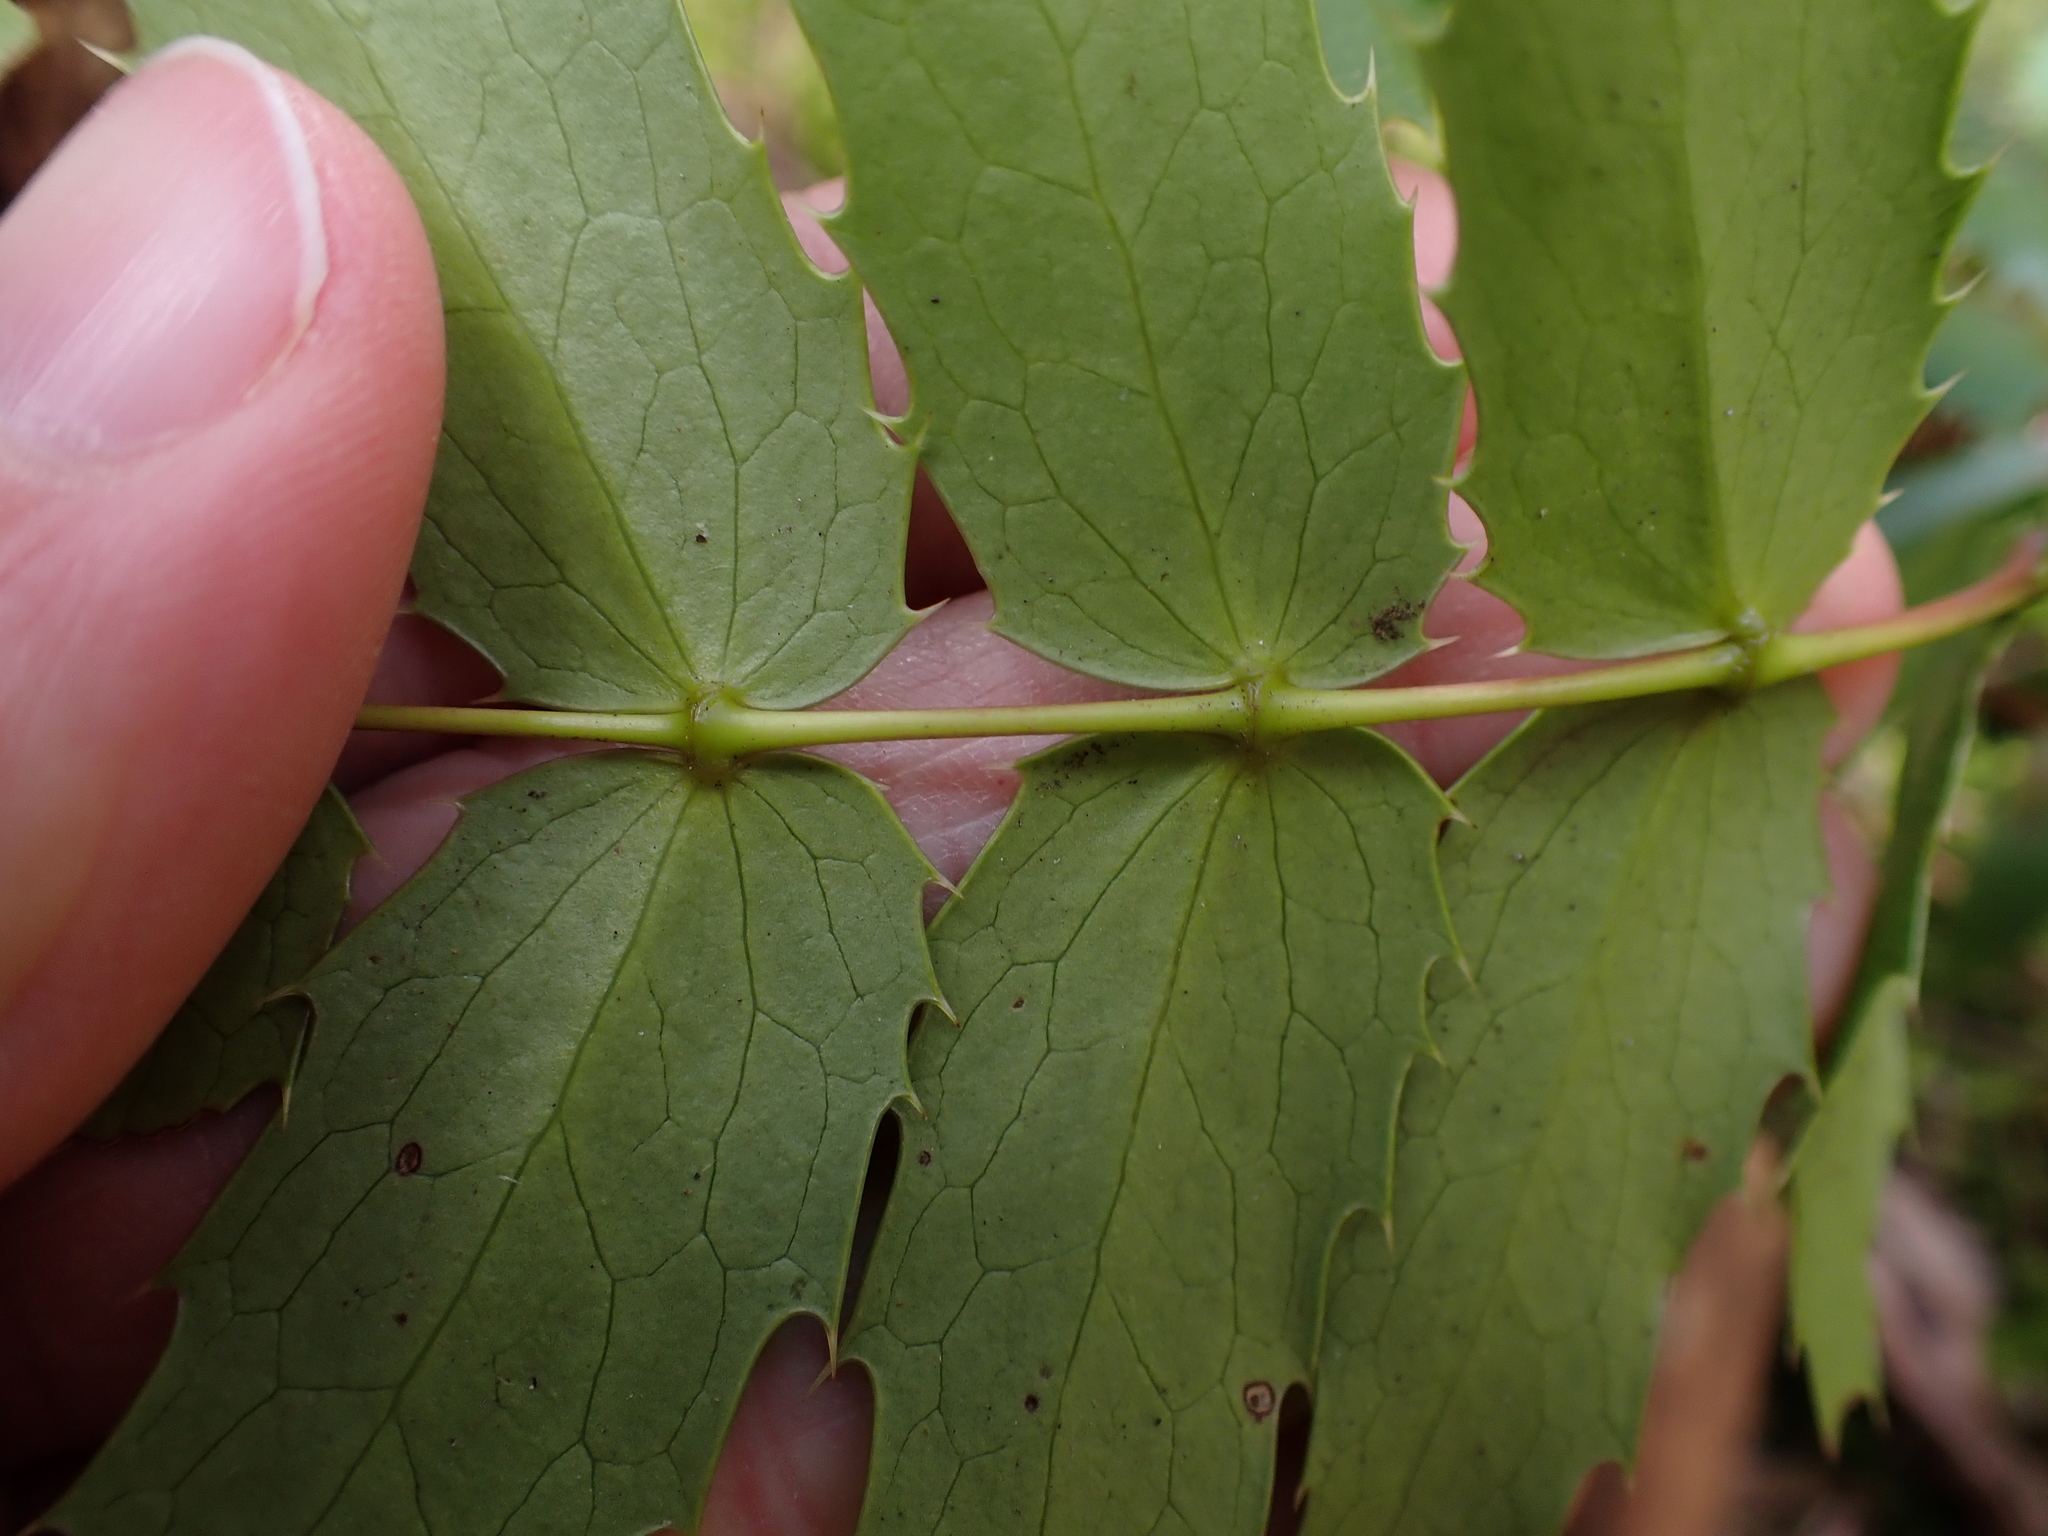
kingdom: Plantae
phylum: Tracheophyta
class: Magnoliopsida
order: Ranunculales
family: Berberidaceae
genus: Mahonia
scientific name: Mahonia nervosa
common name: Cascade oregon-grape
